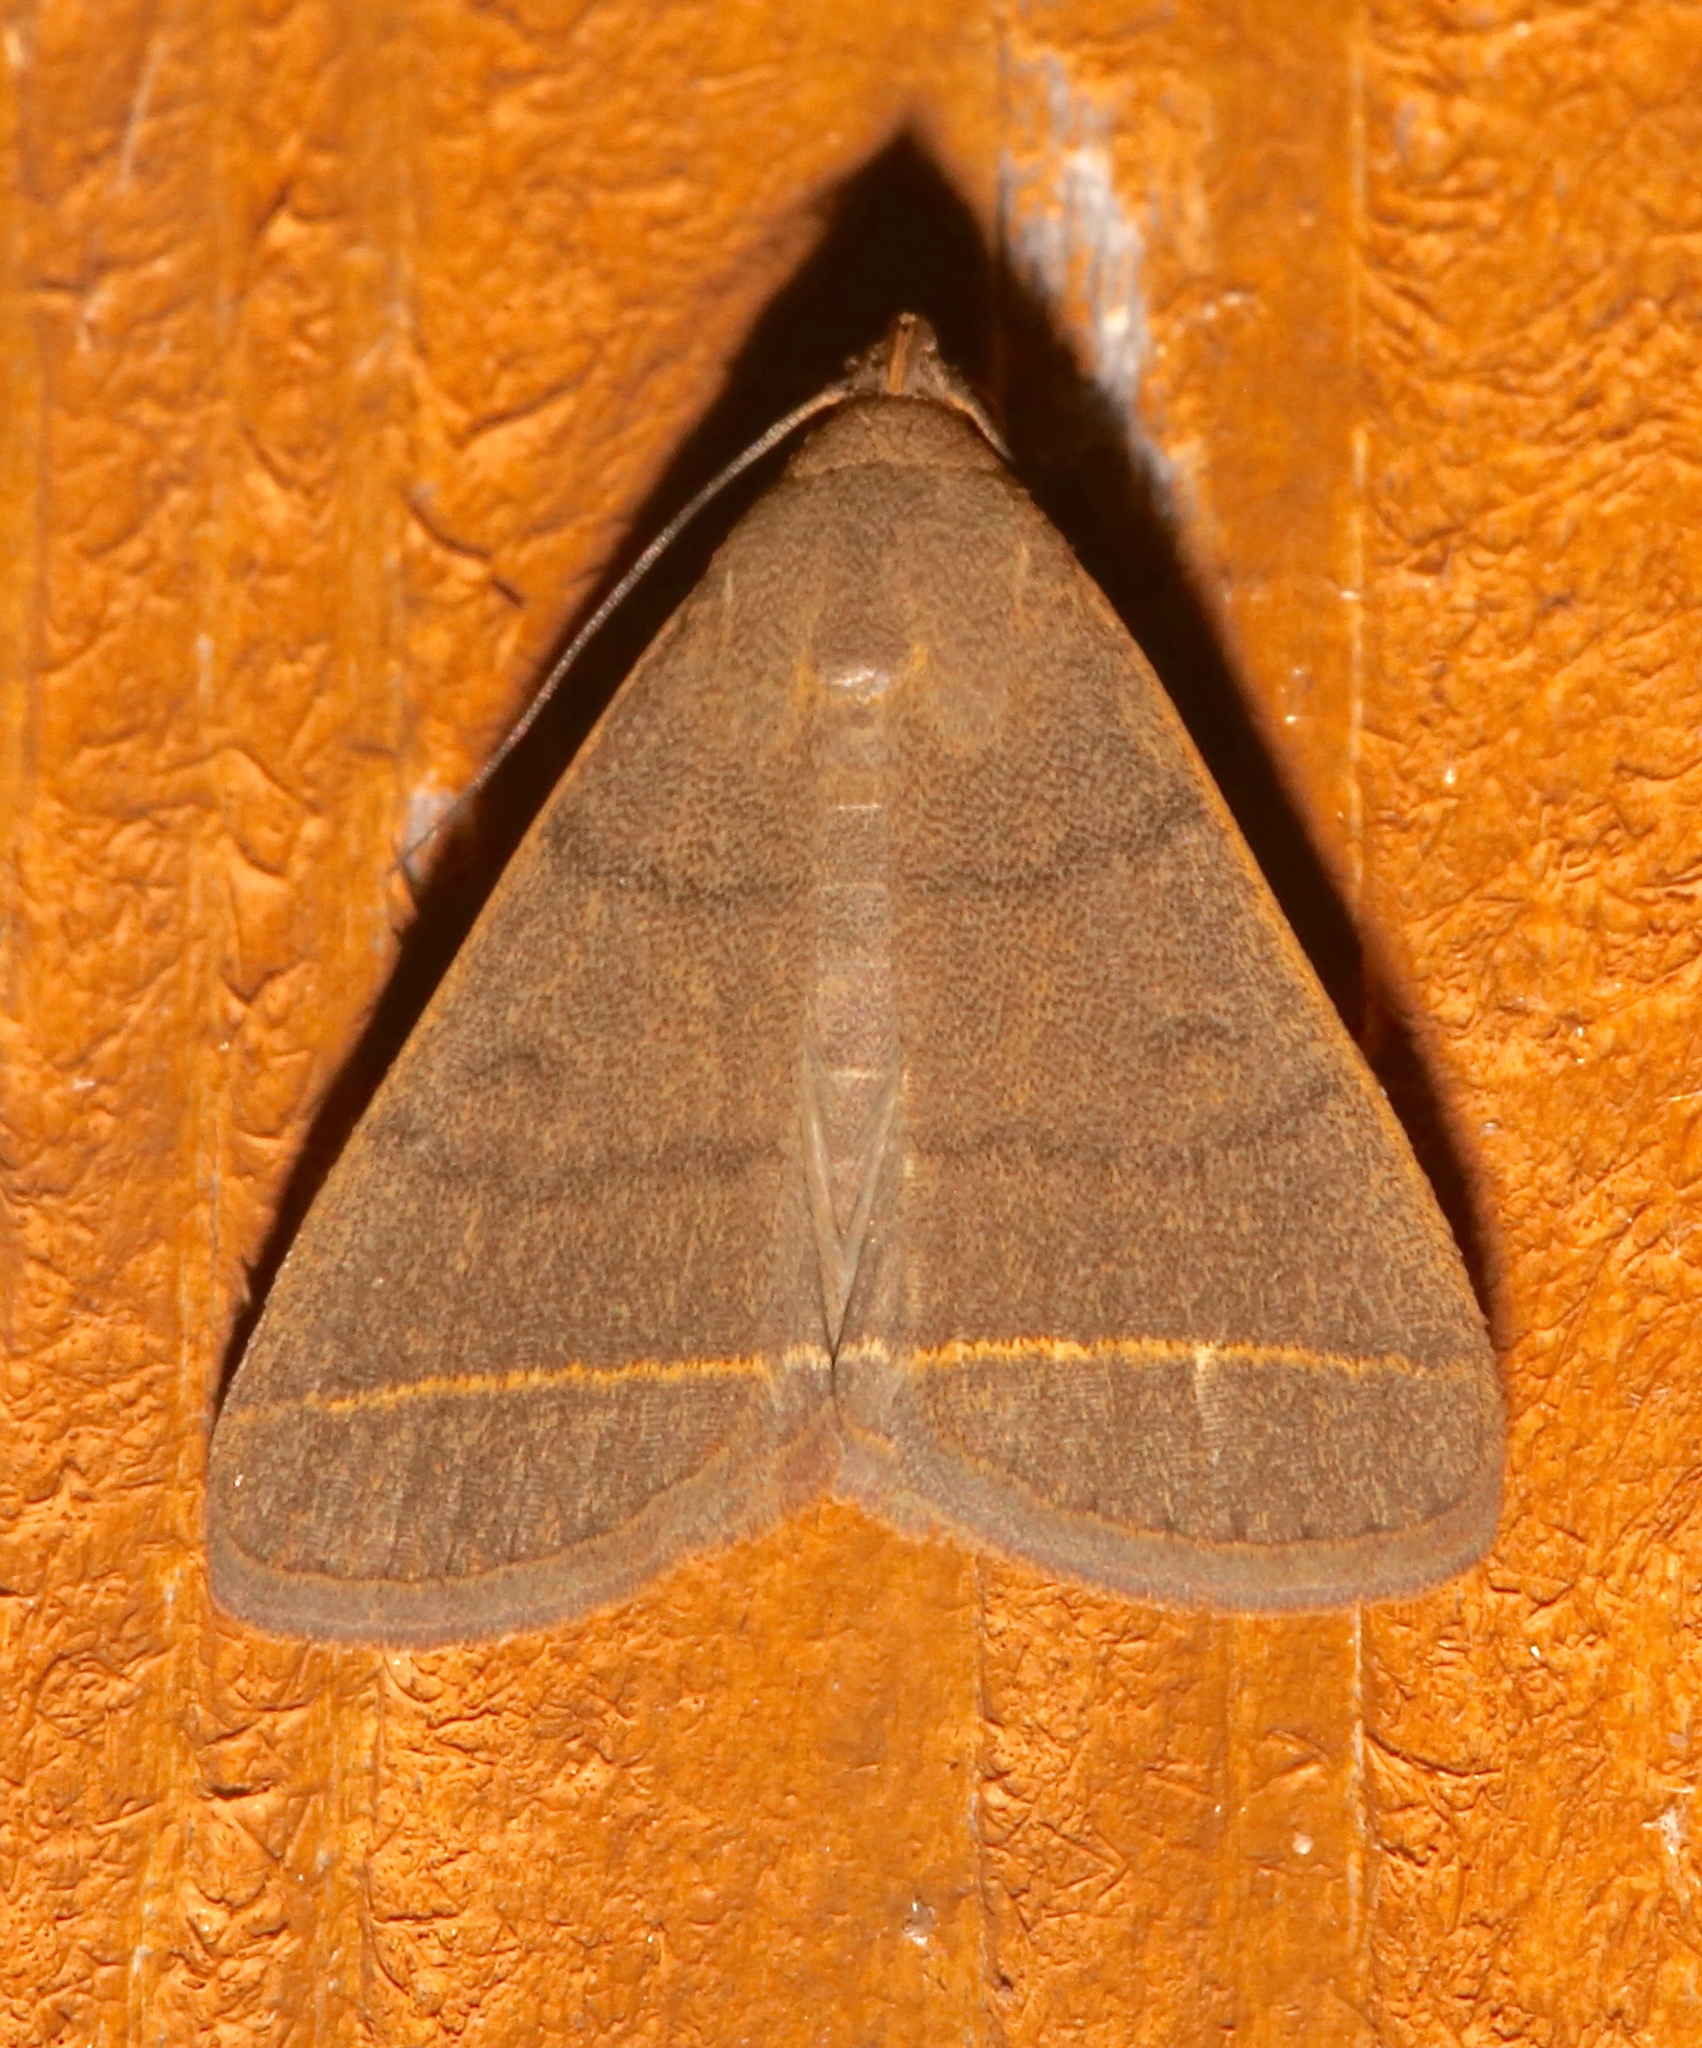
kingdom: Animalia
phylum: Arthropoda
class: Insecta
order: Lepidoptera
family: Erebidae
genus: Simplicia
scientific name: Simplicia cornicalis
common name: Tiki hut litter moth
